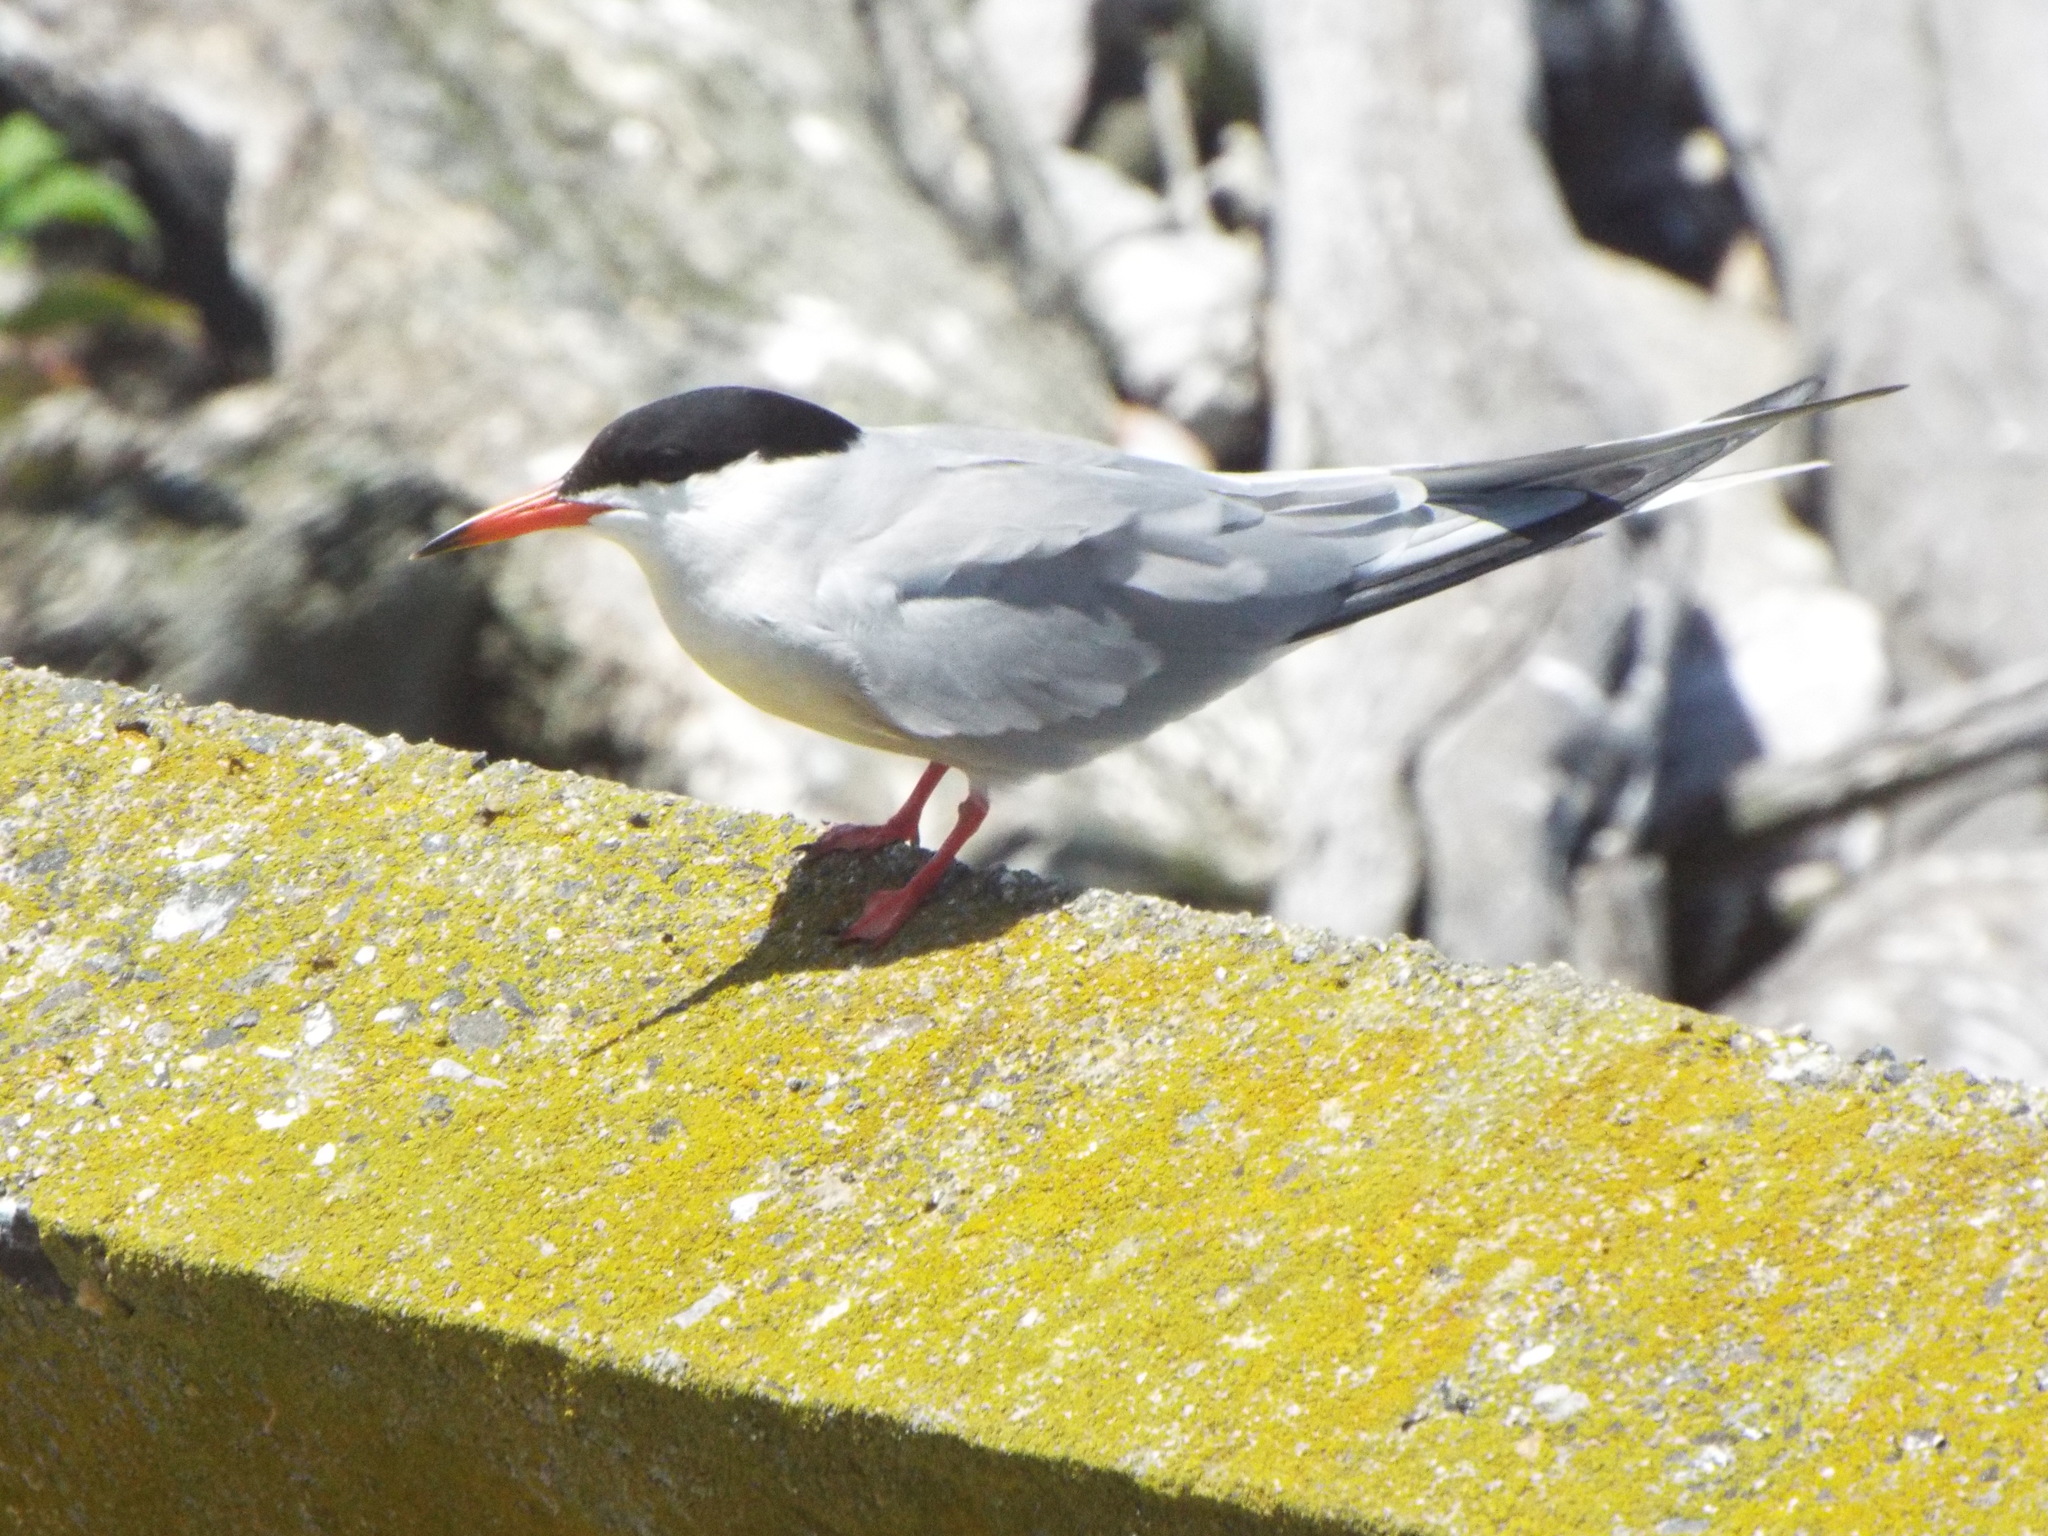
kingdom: Animalia
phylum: Chordata
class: Aves
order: Charadriiformes
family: Laridae
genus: Sterna
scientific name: Sterna hirundo
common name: Common tern
